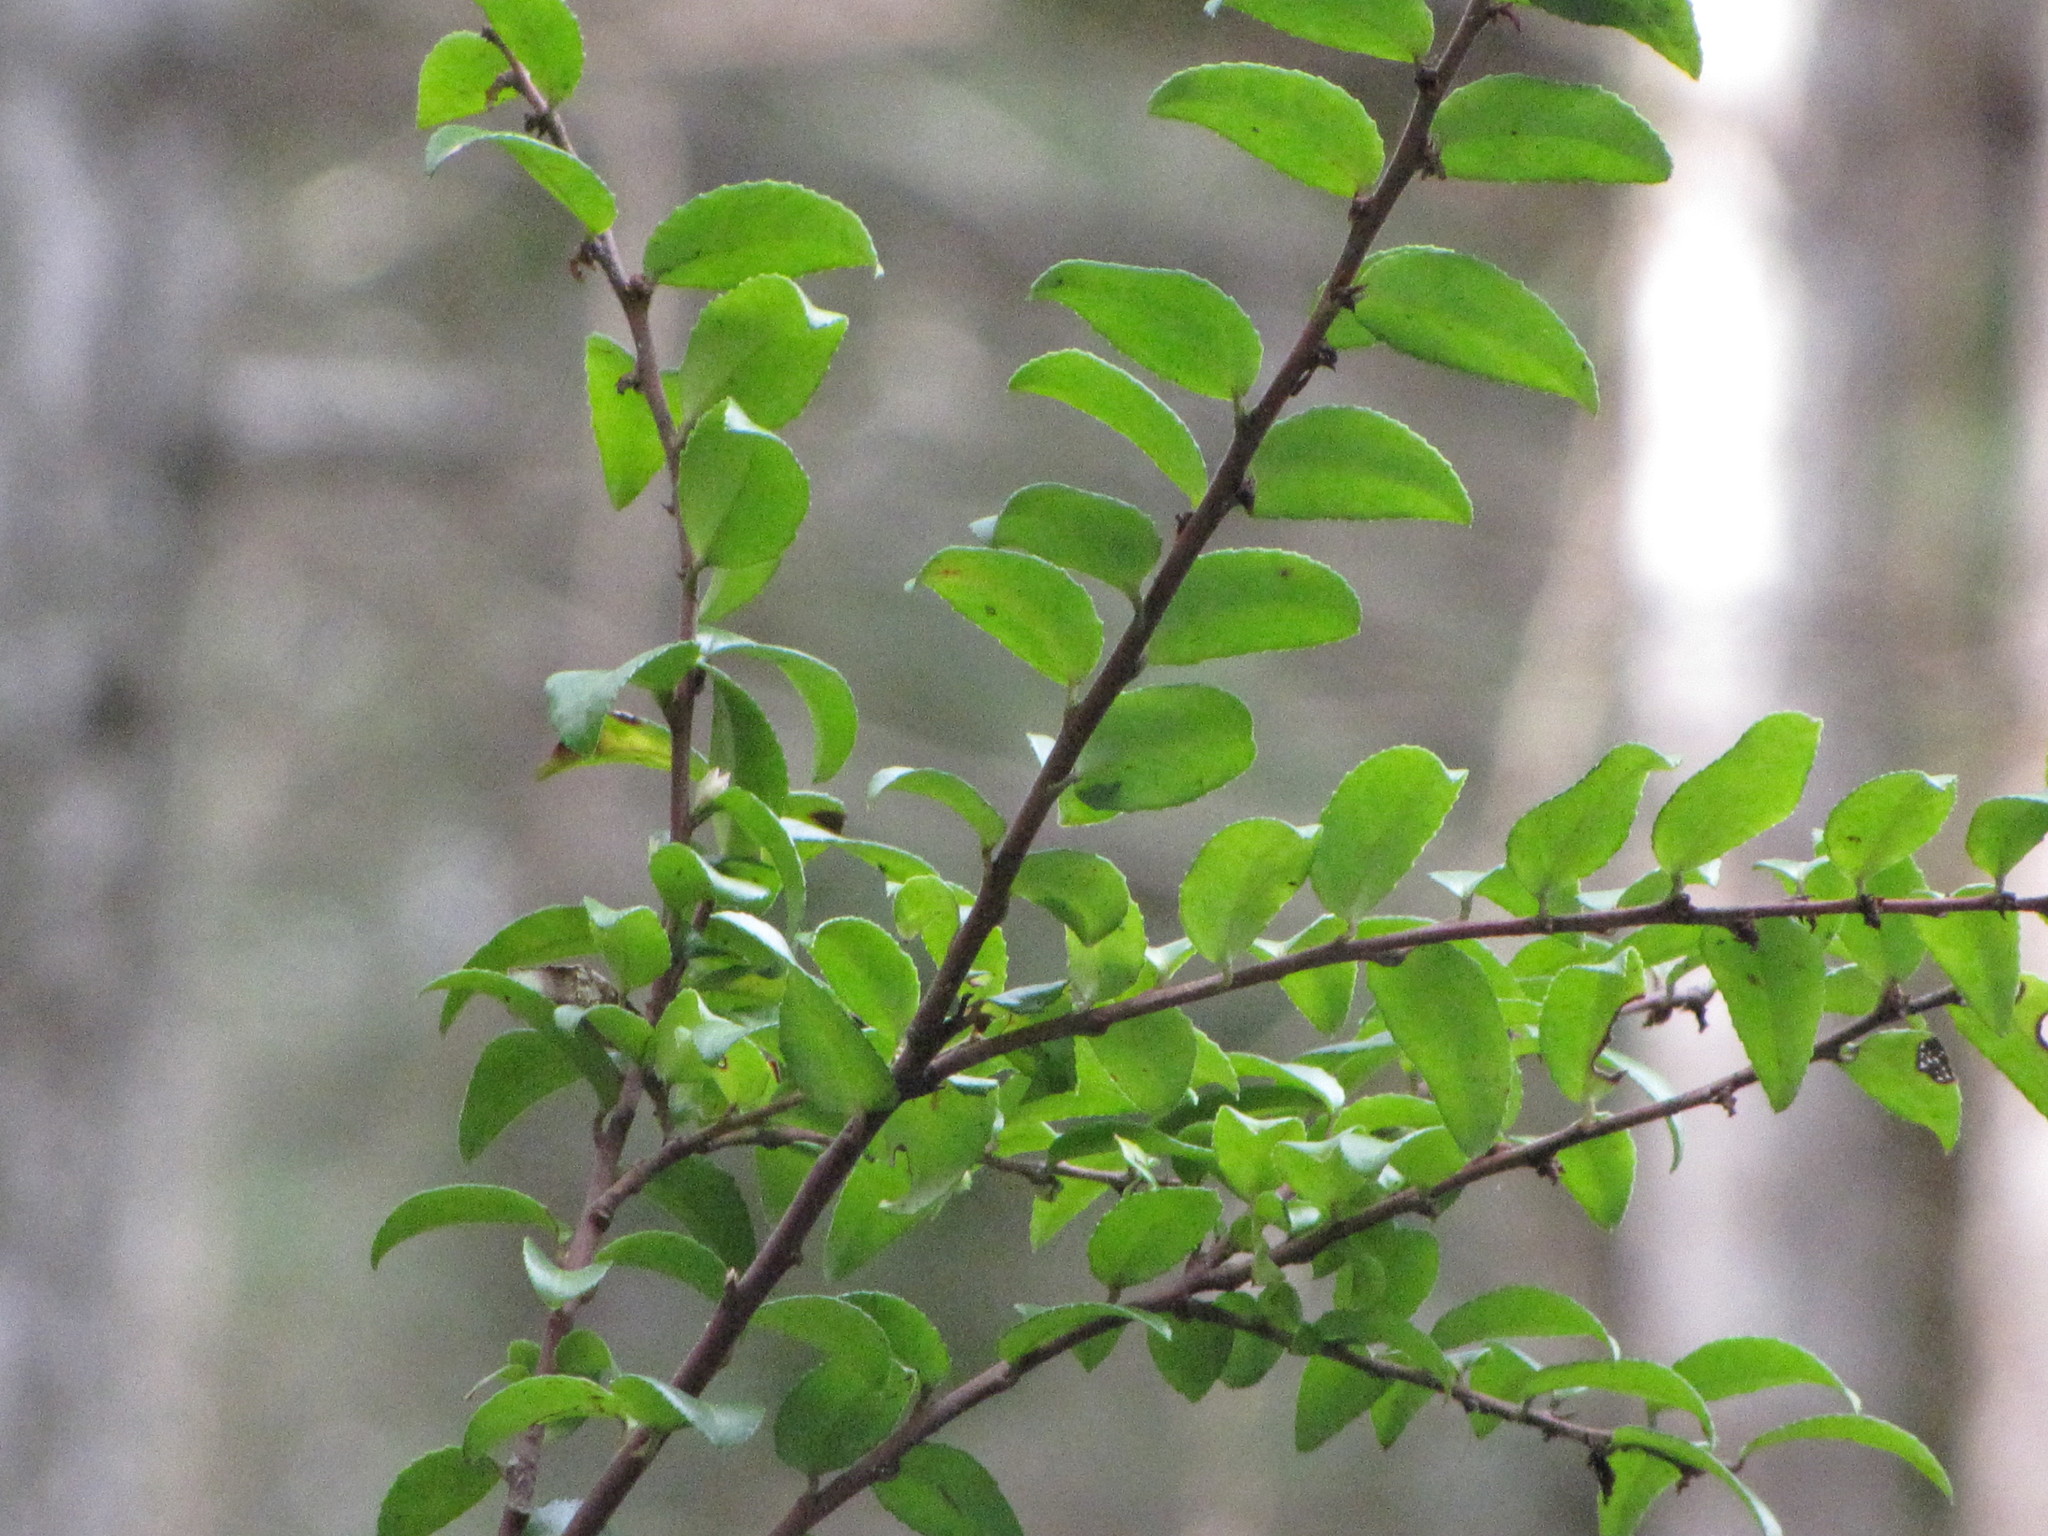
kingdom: Plantae
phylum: Tracheophyta
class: Magnoliopsida
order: Ericales
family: Ericaceae
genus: Vaccinium
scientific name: Vaccinium ovatum
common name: California-huckleberry
